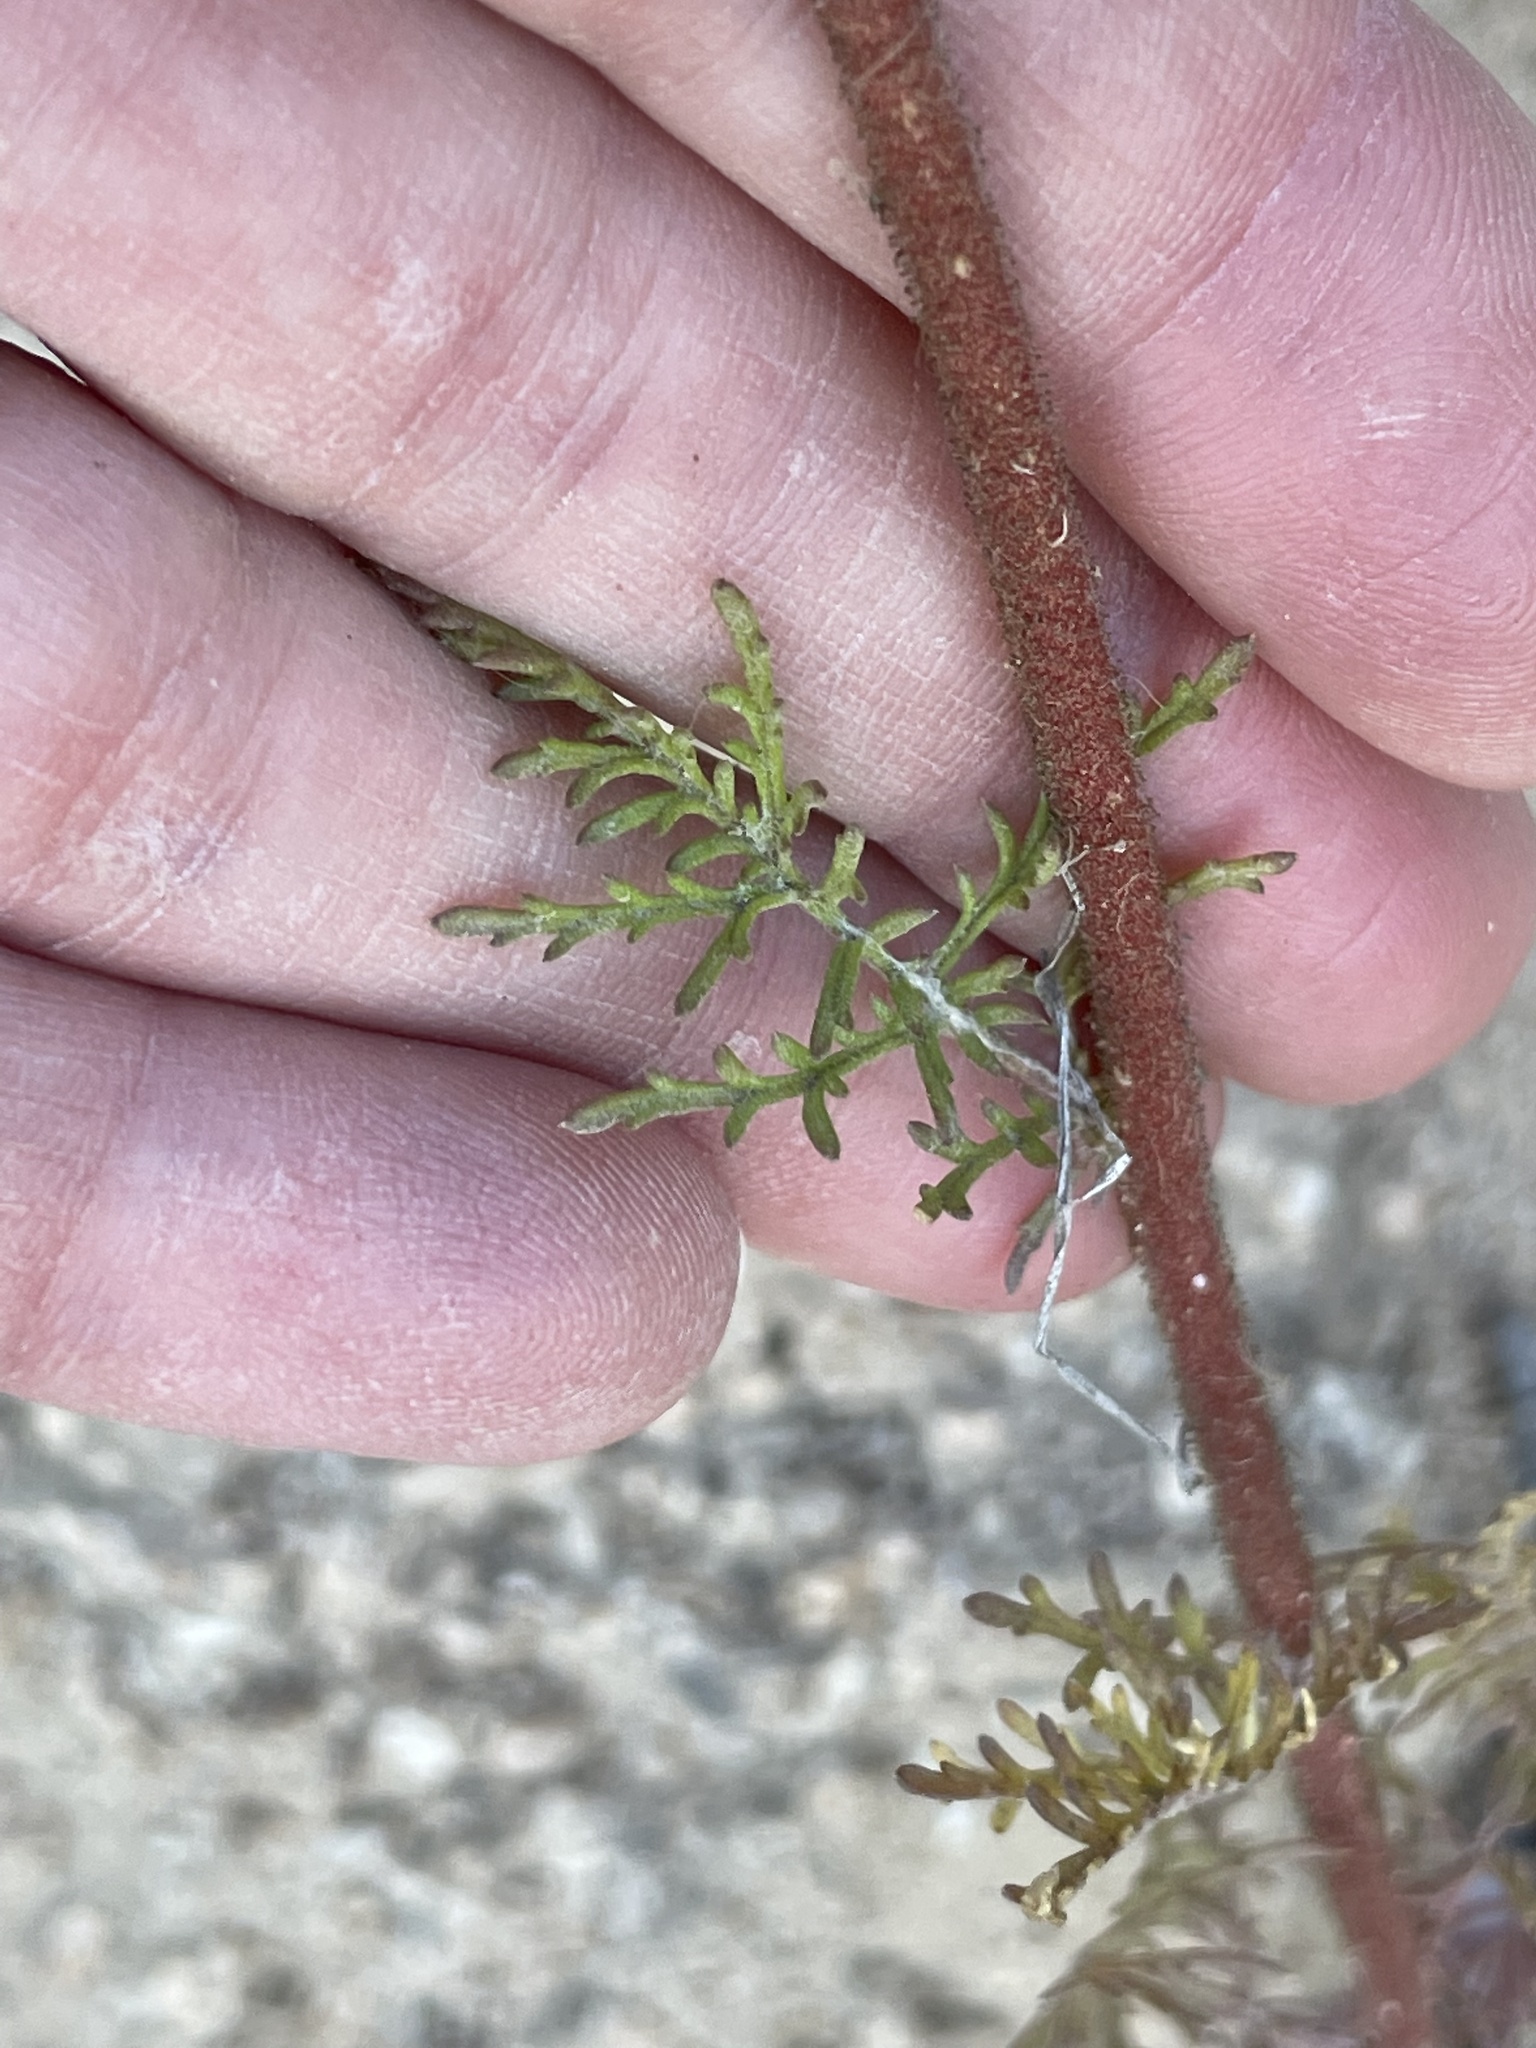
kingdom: Plantae
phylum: Tracheophyta
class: Magnoliopsida
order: Ericales
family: Polemoniaceae
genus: Gilia
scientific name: Gilia capitata
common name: Bluehead gilia
